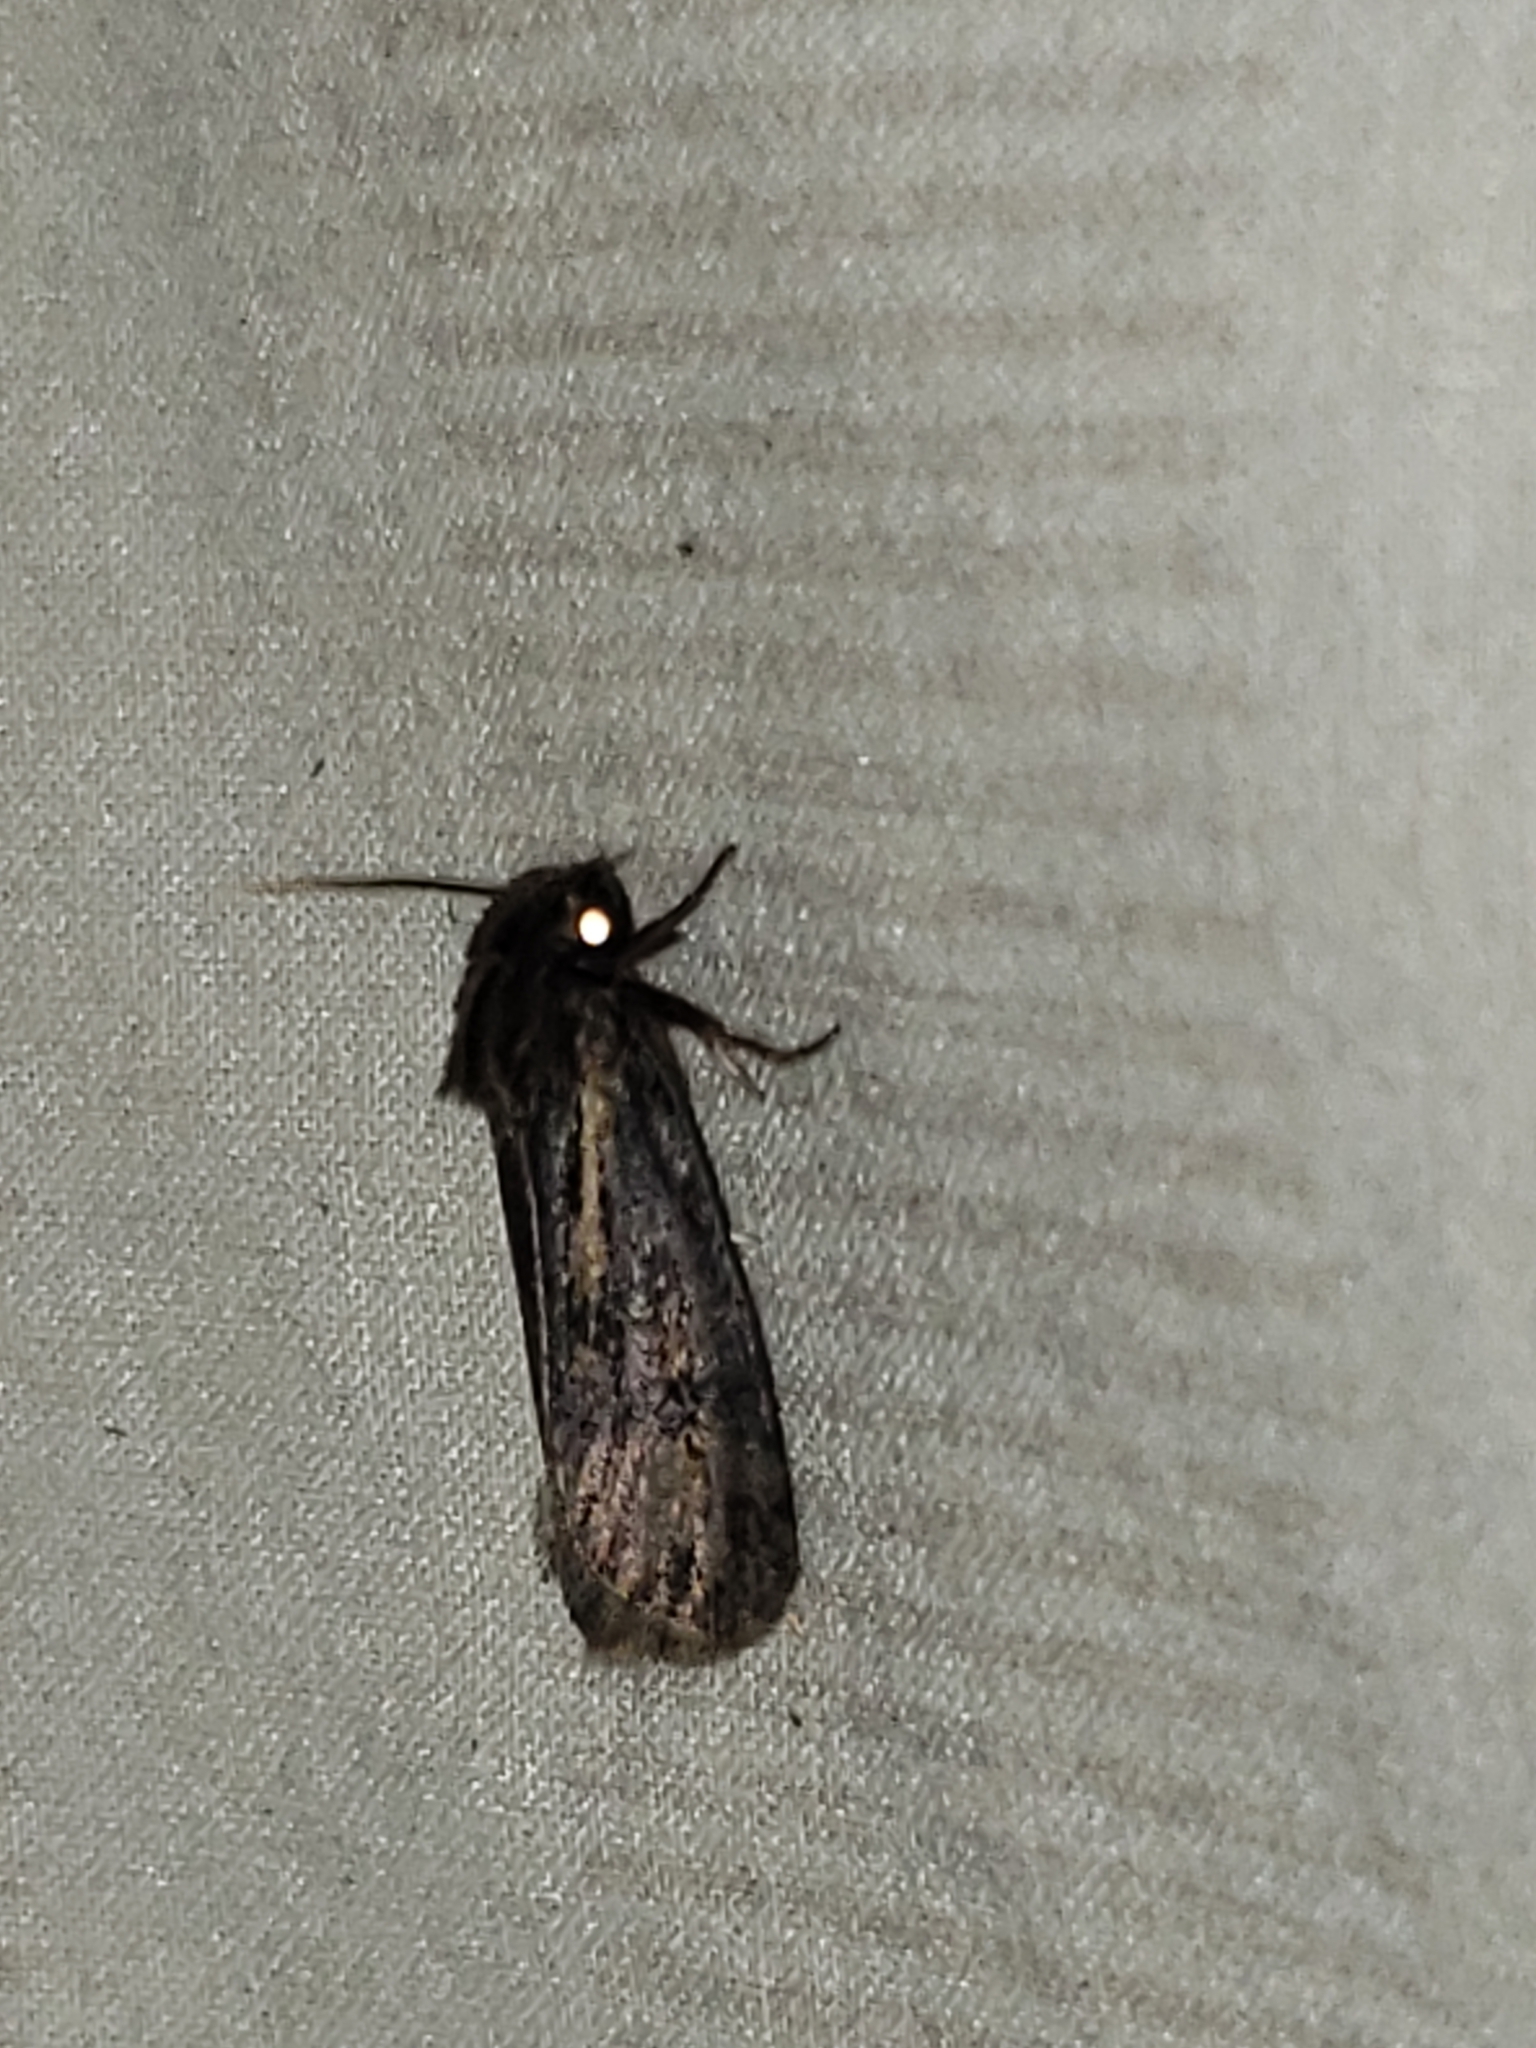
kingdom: Animalia
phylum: Arthropoda
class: Insecta
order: Lepidoptera
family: Tineidae
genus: Acrolophus
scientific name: Acrolophus popeanella
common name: Clemens' grass tubeworm moth
